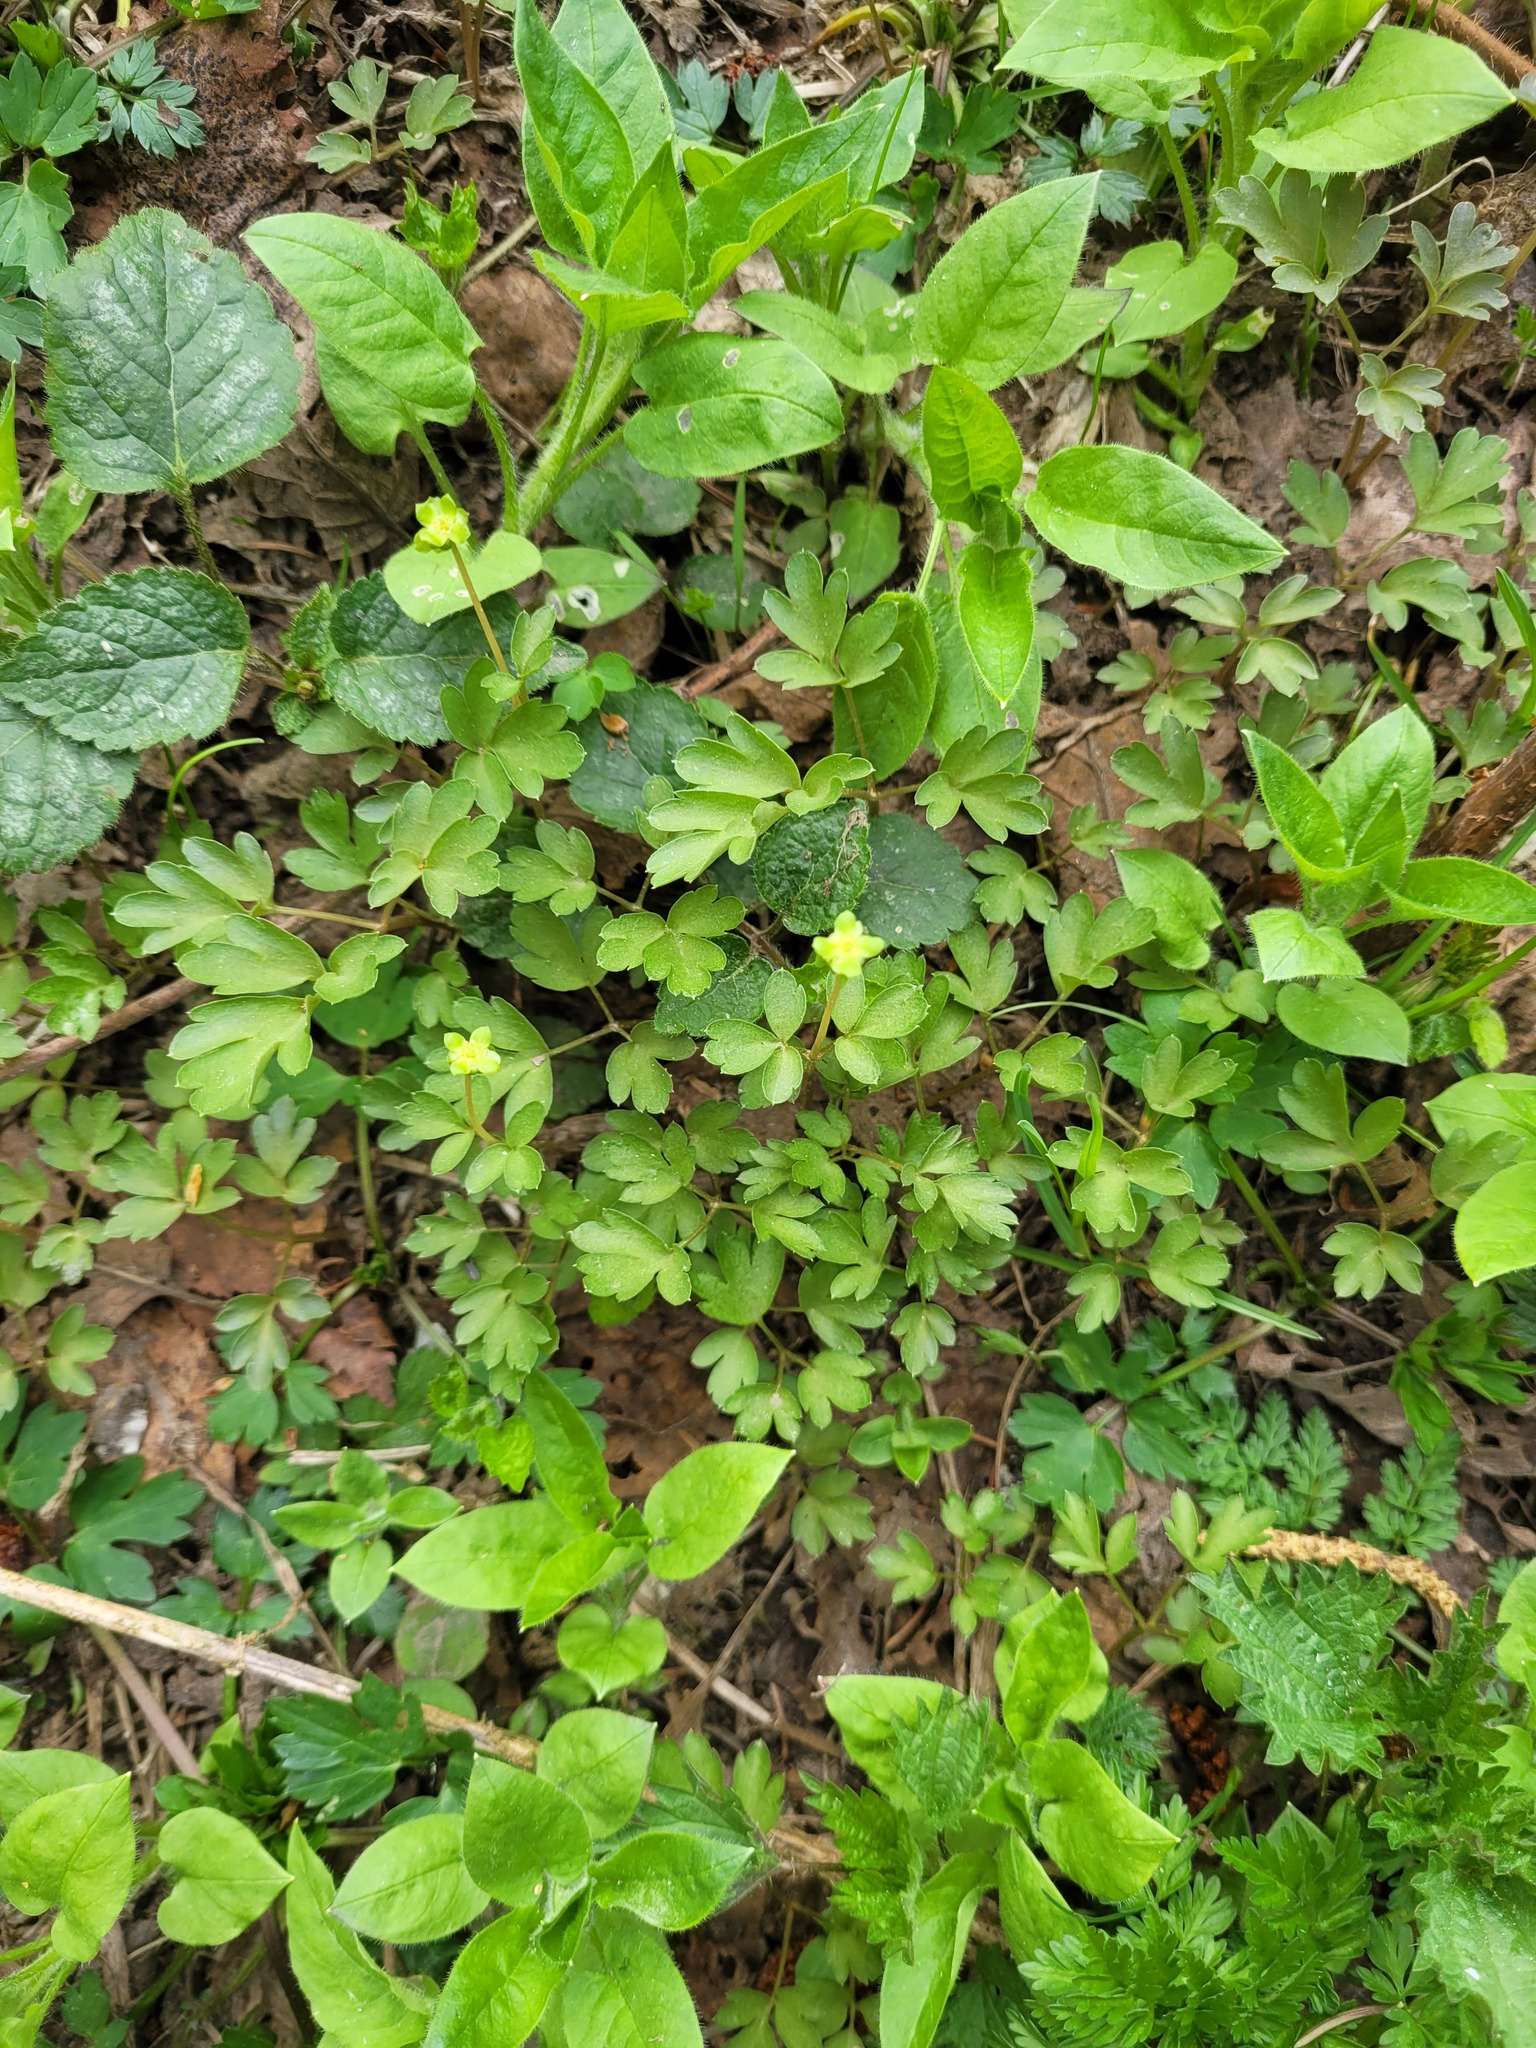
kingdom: Plantae
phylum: Tracheophyta
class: Magnoliopsida
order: Dipsacales
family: Viburnaceae
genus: Adoxa
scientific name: Adoxa moschatellina
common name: Moschatel
